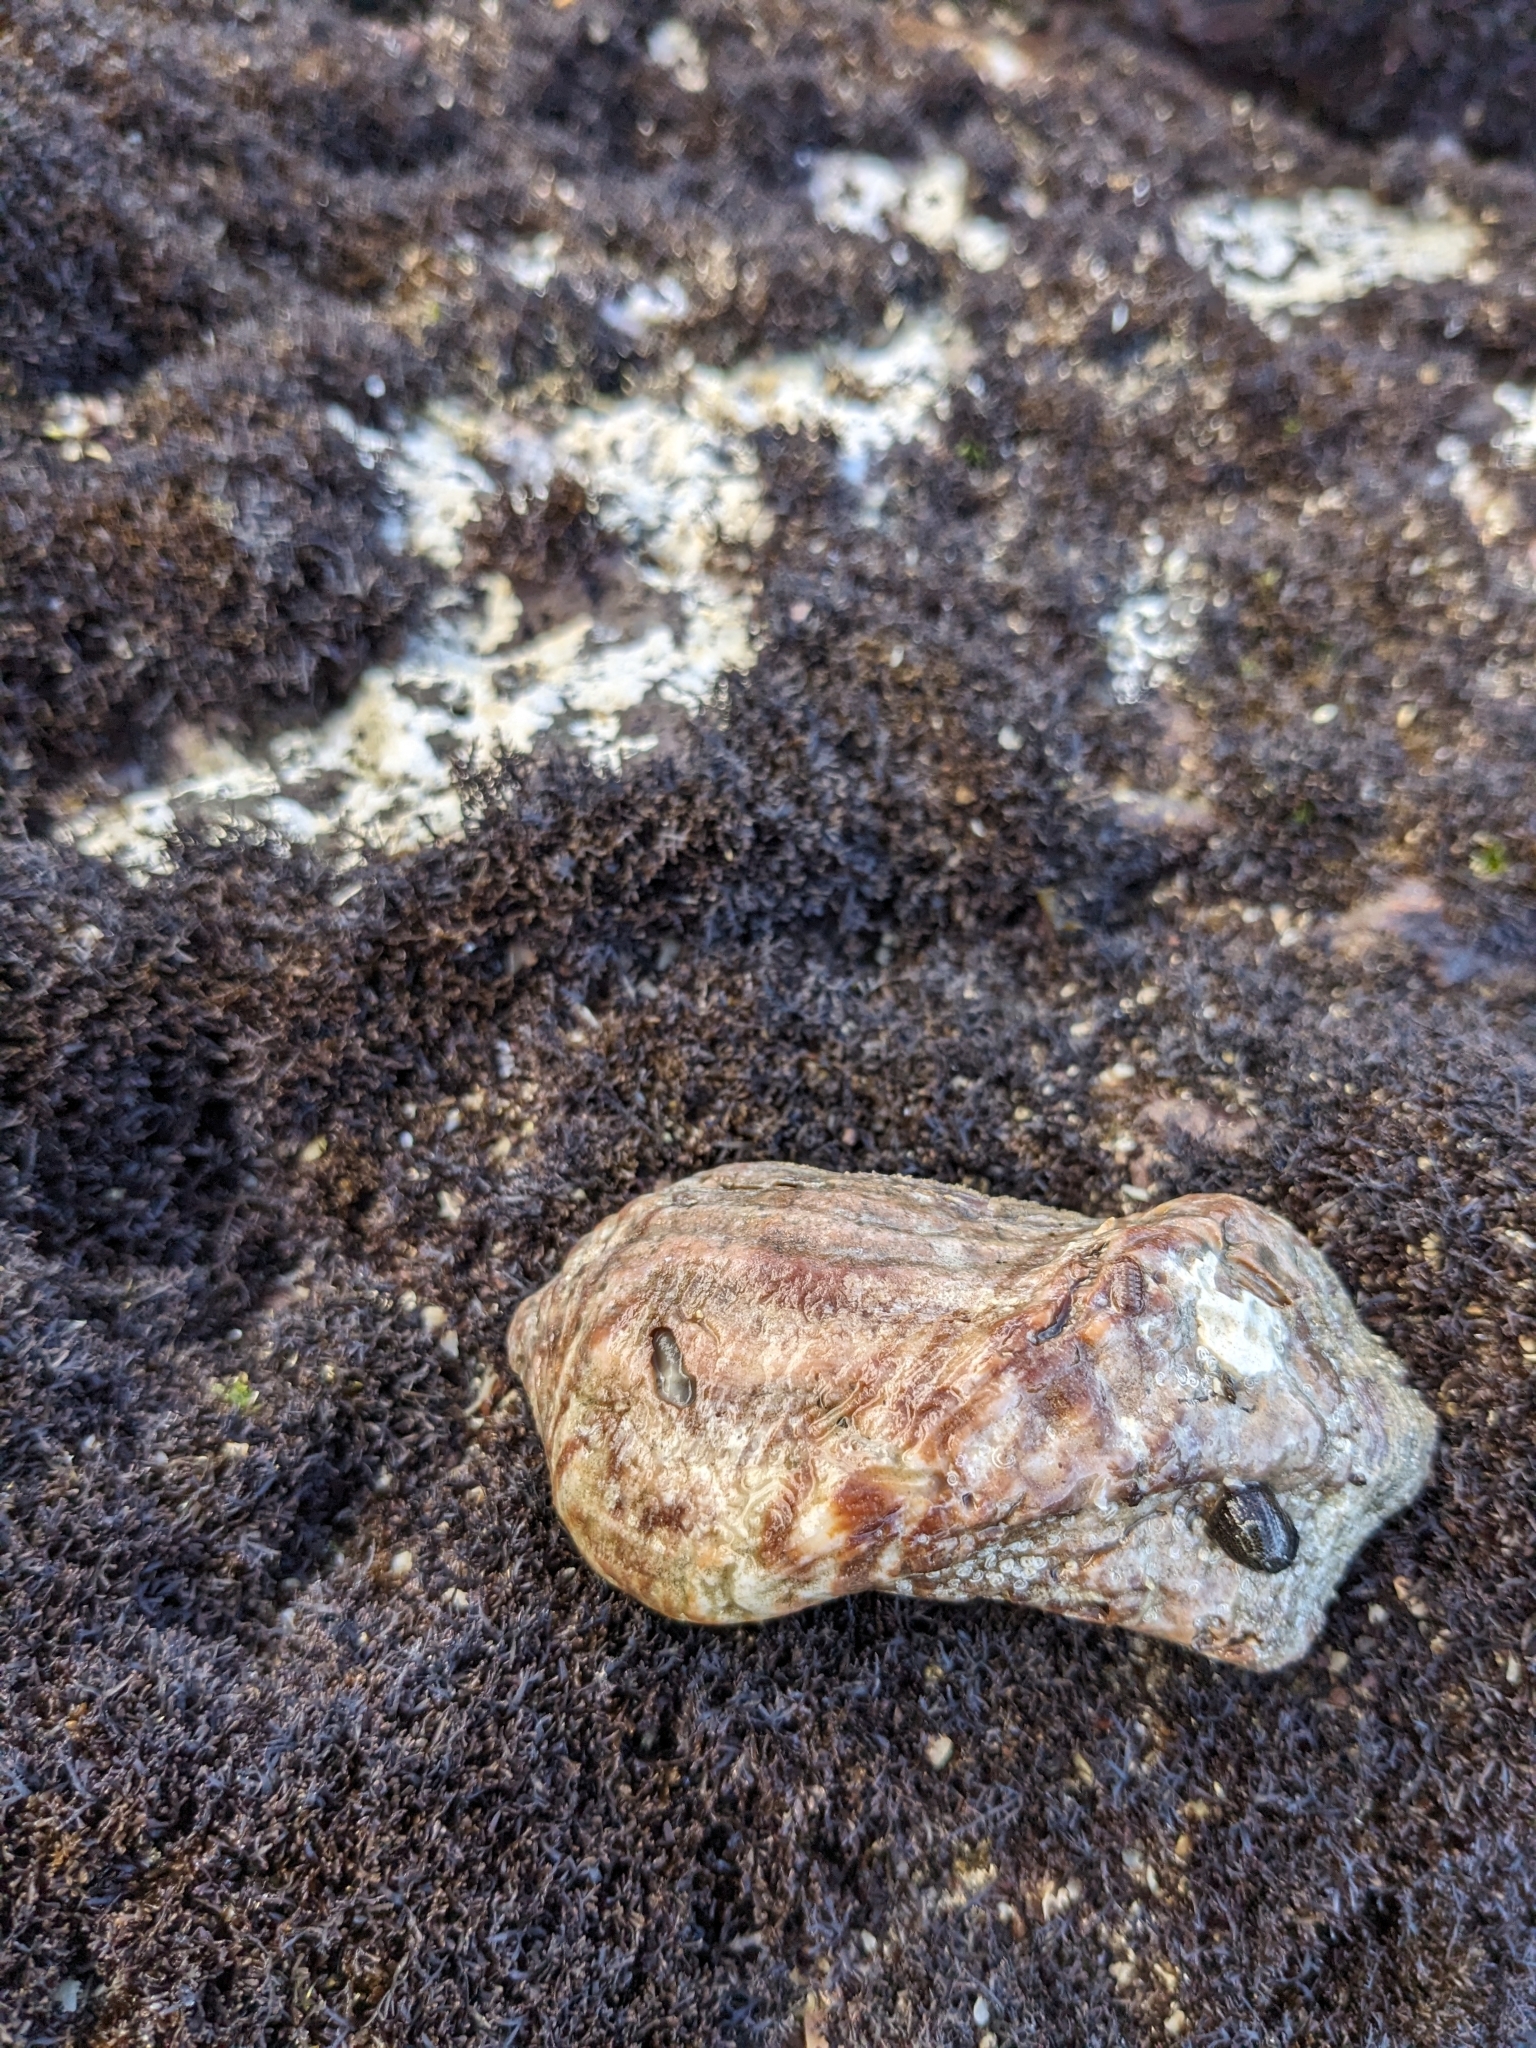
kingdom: Animalia
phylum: Mollusca
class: Bivalvia
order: Arcida
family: Arcidae
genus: Arca
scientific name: Arca pacifica
